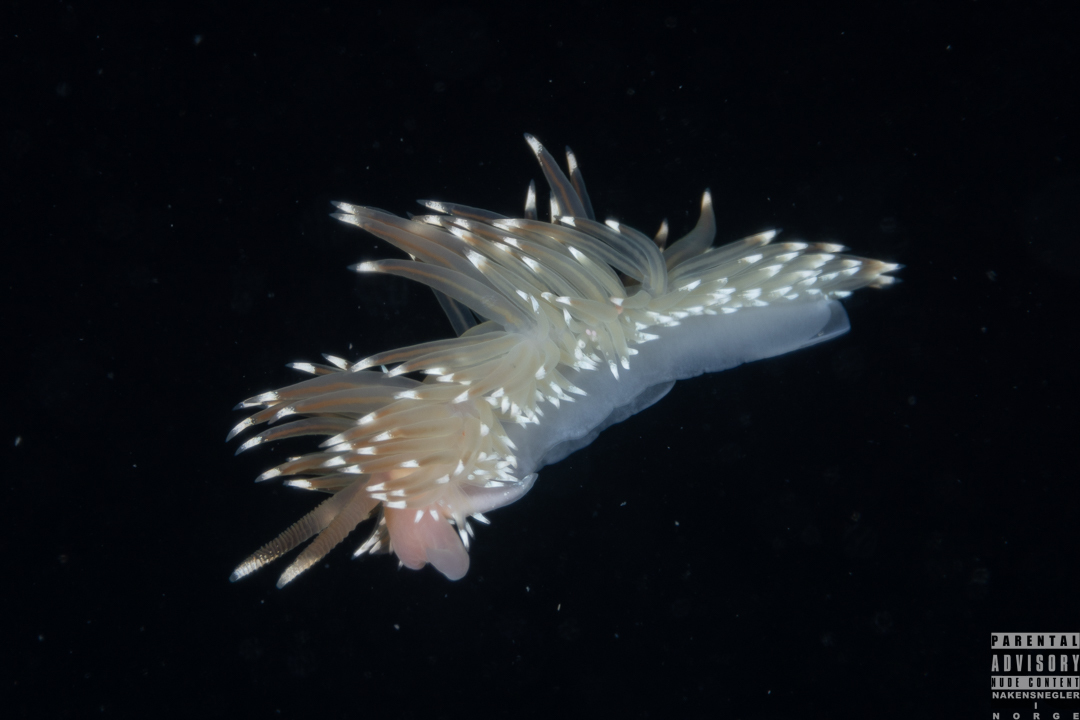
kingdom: Animalia
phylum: Mollusca
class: Gastropoda
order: Nudibranchia
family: Facelinidae
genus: Facelina
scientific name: Facelina bostoniensis
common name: Boston facelina
